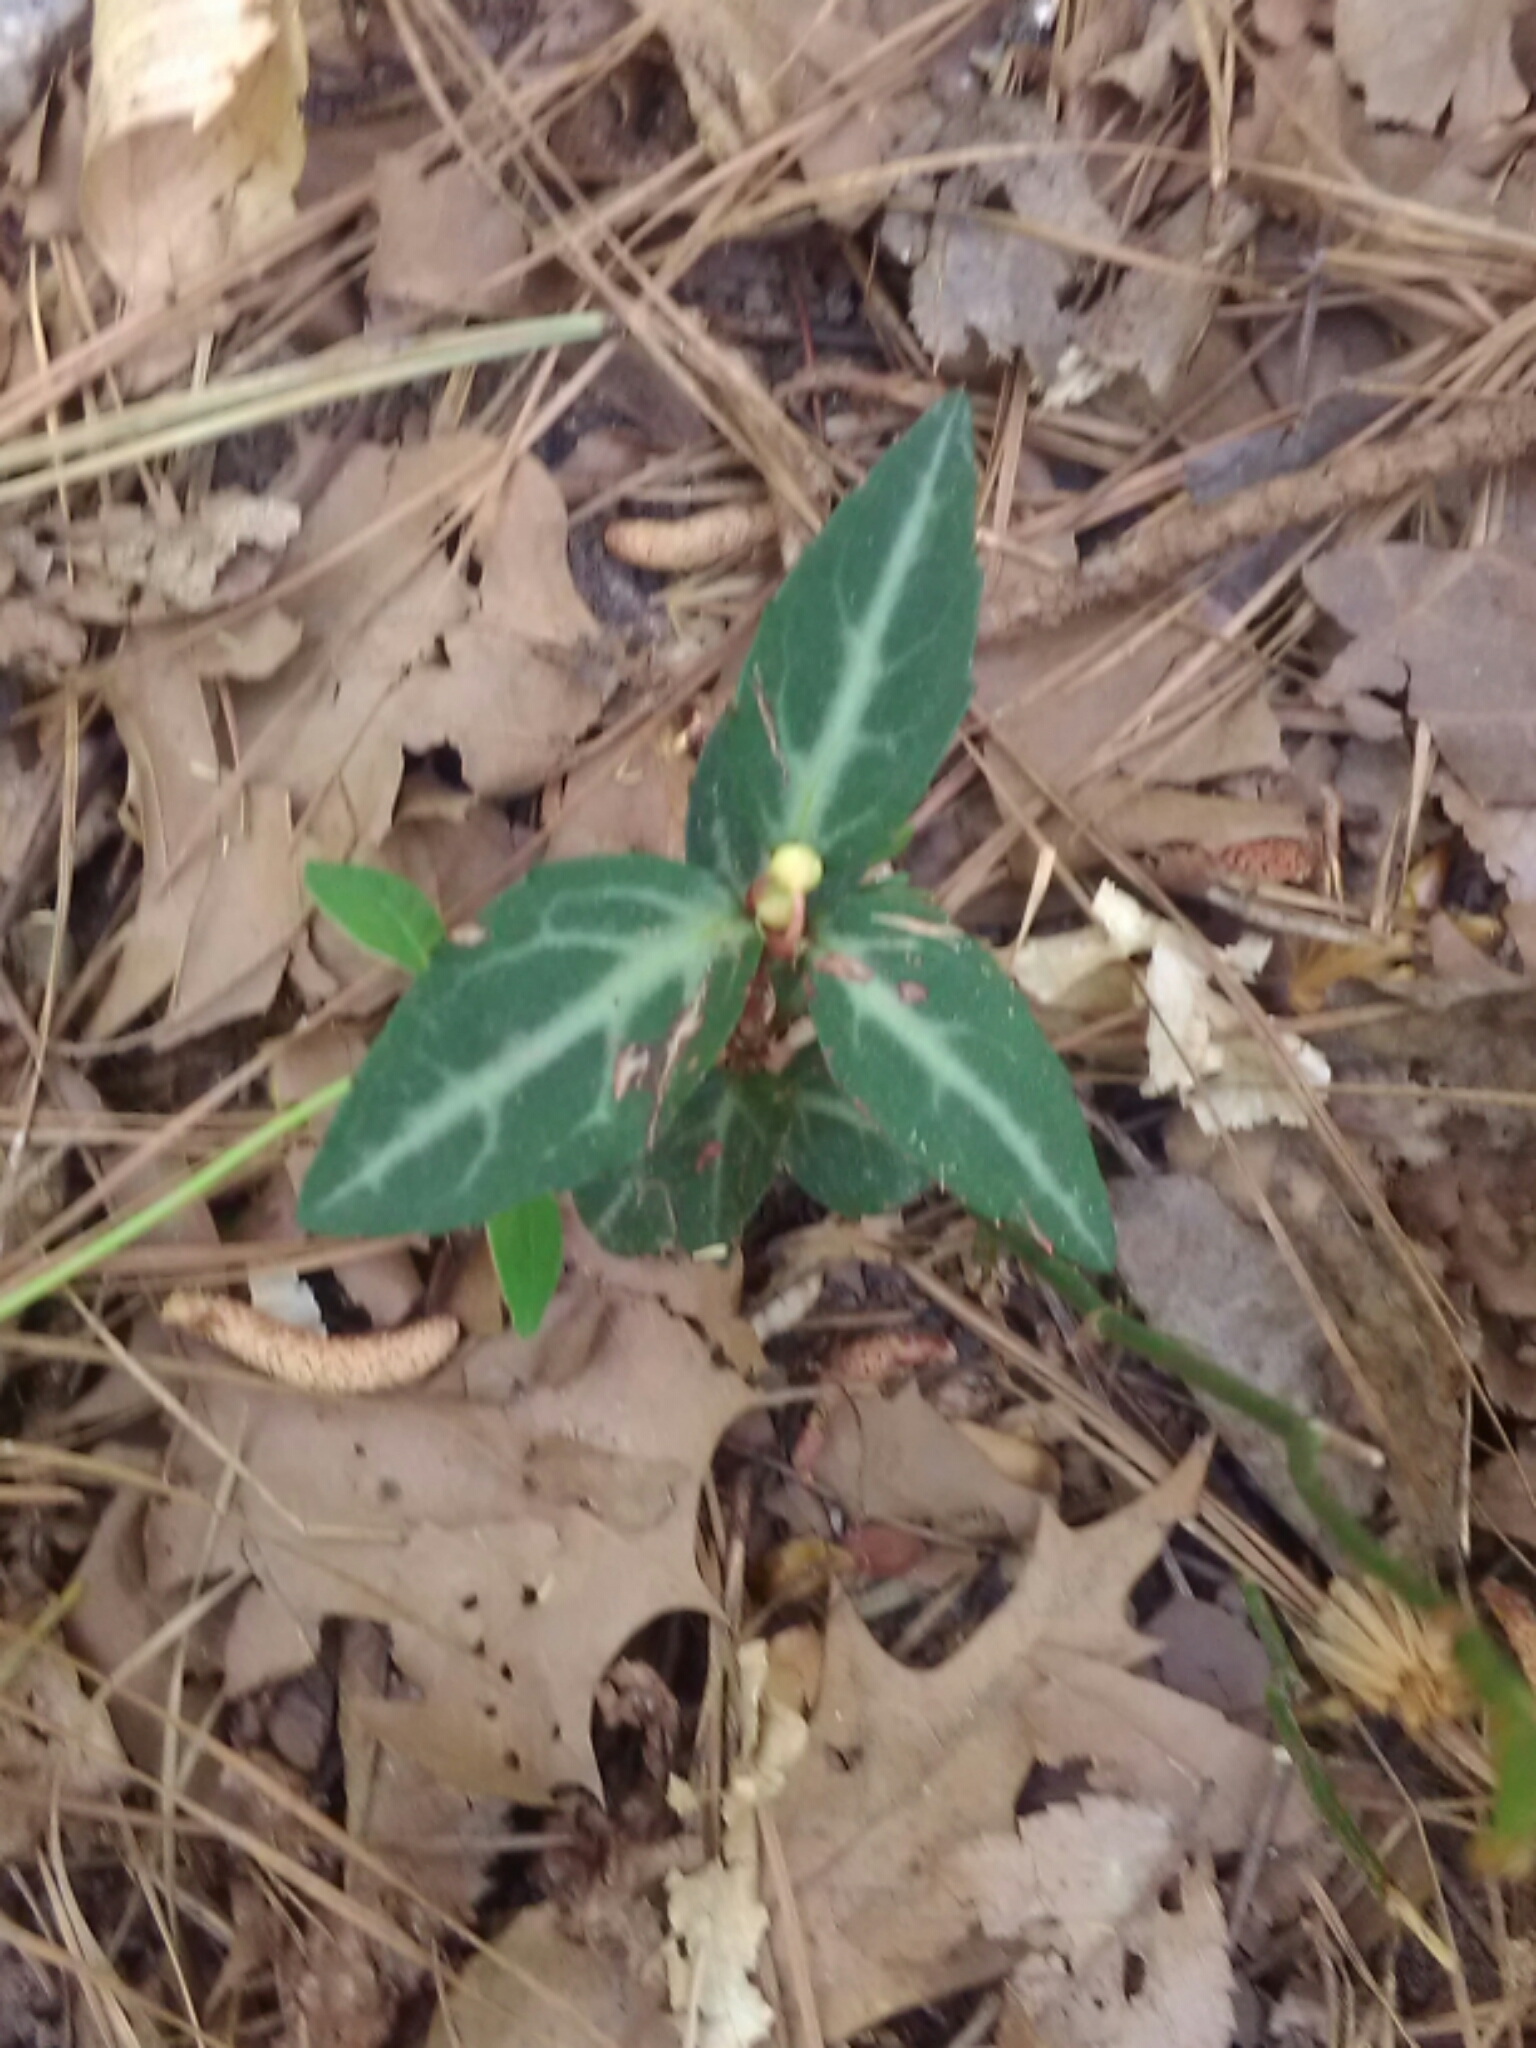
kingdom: Plantae
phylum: Tracheophyta
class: Magnoliopsida
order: Ericales
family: Ericaceae
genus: Chimaphila
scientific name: Chimaphila maculata
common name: Spotted pipsissewa
